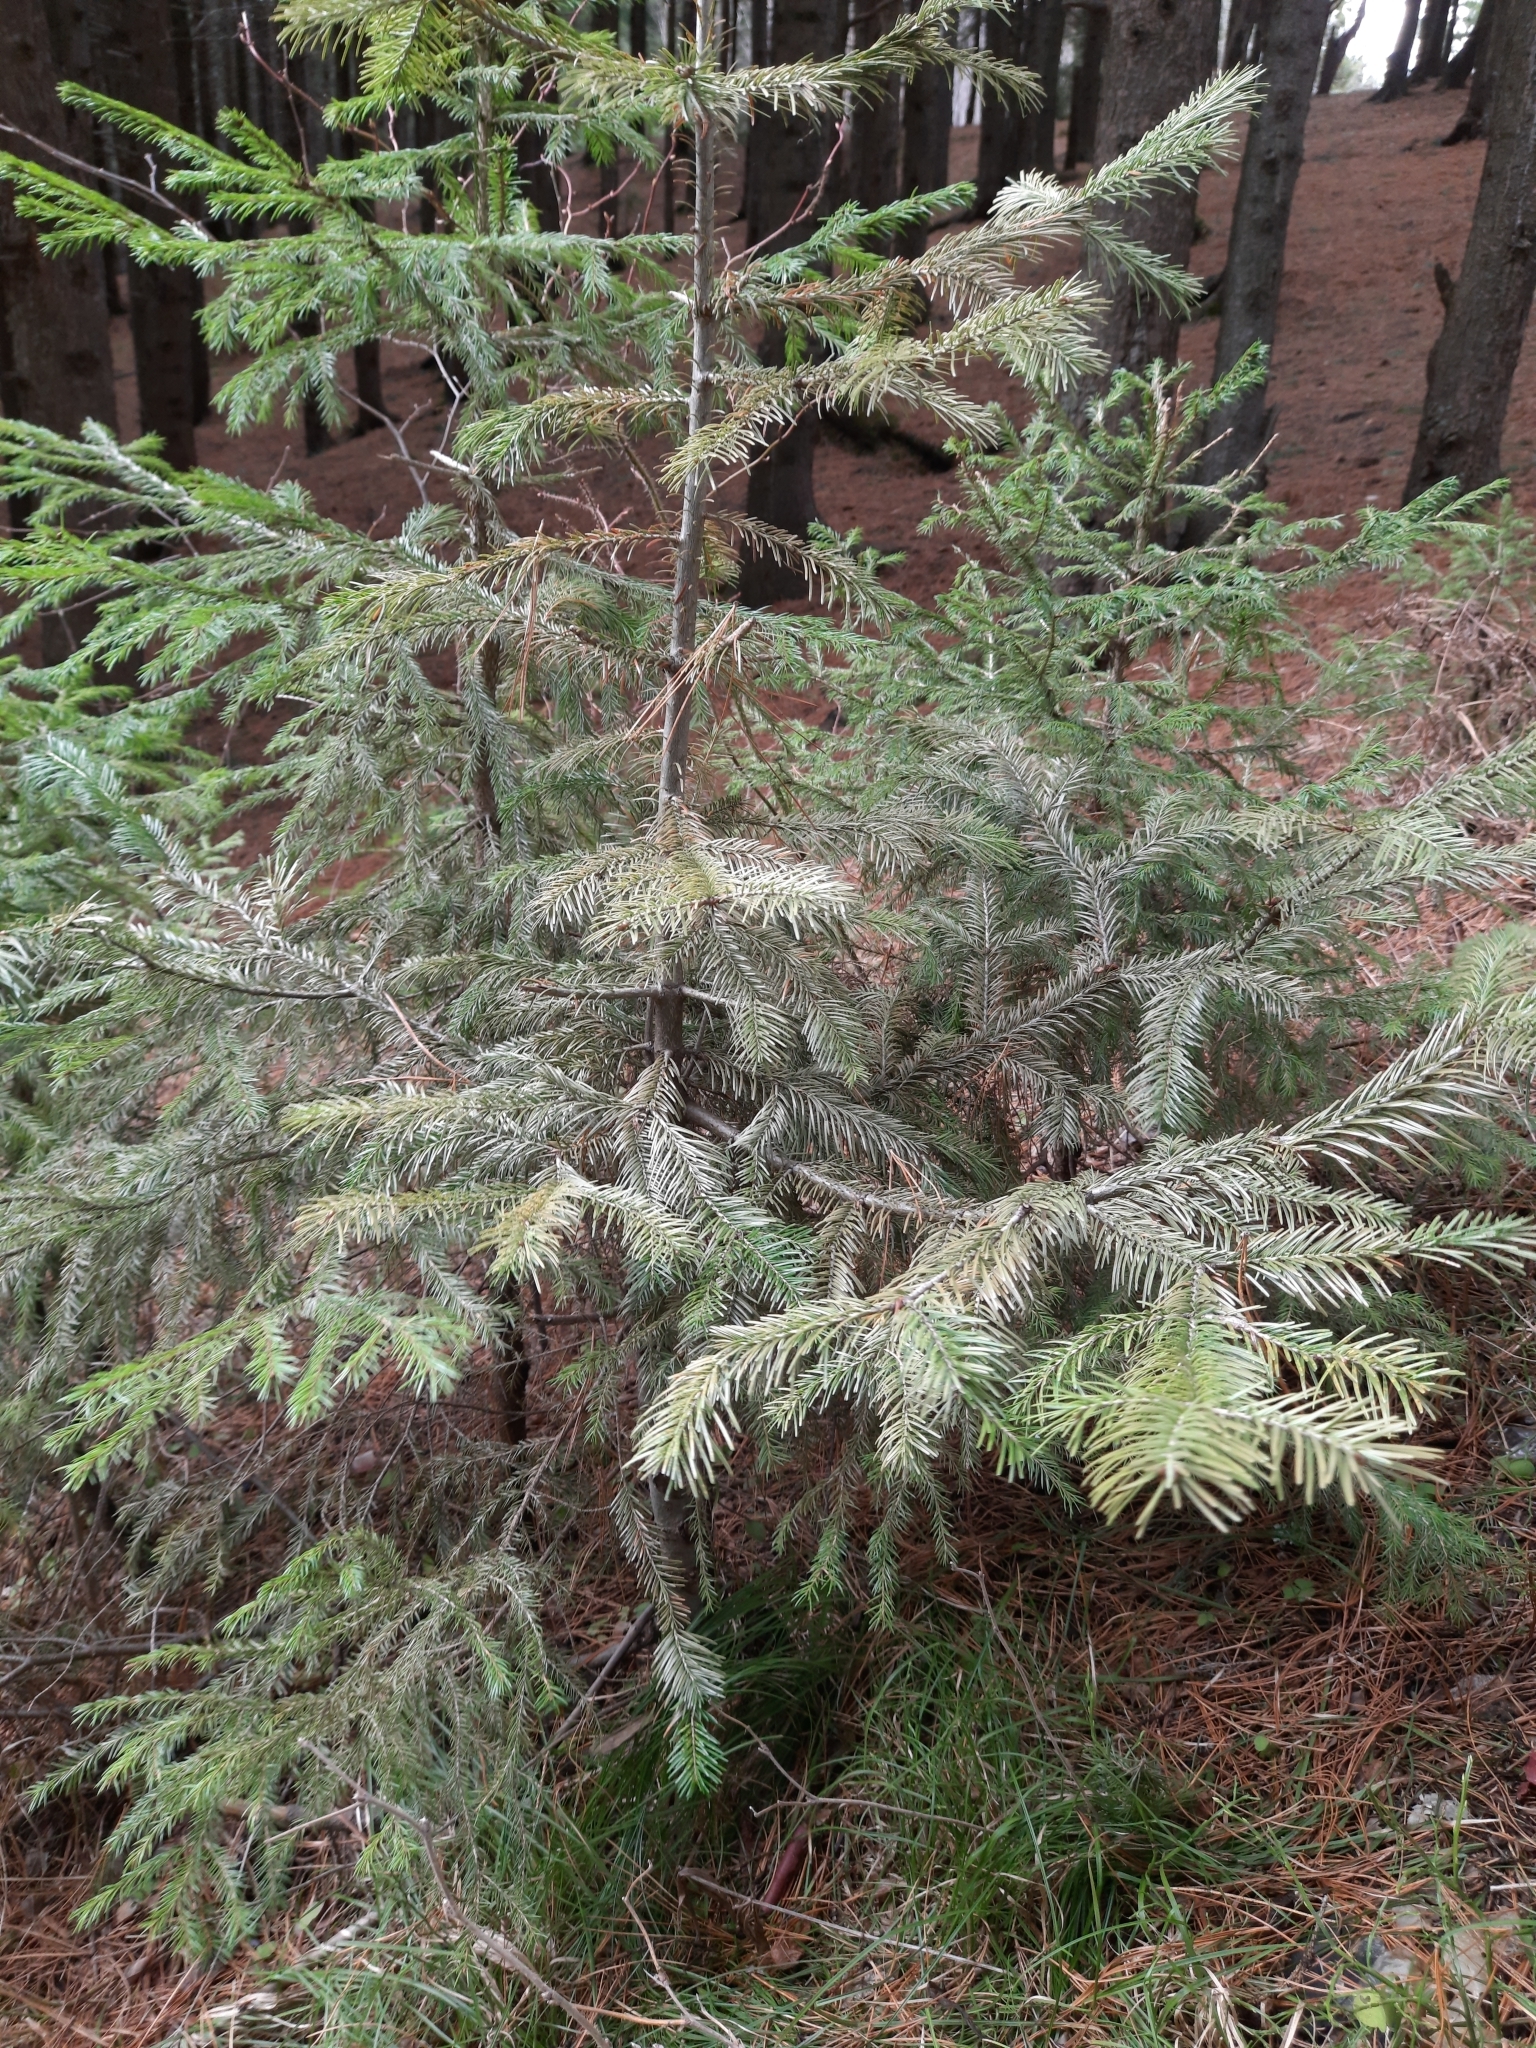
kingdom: Plantae
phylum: Tracheophyta
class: Pinopsida
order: Pinales
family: Pinaceae
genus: Abies
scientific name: Abies sibirica
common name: Siberian fir
